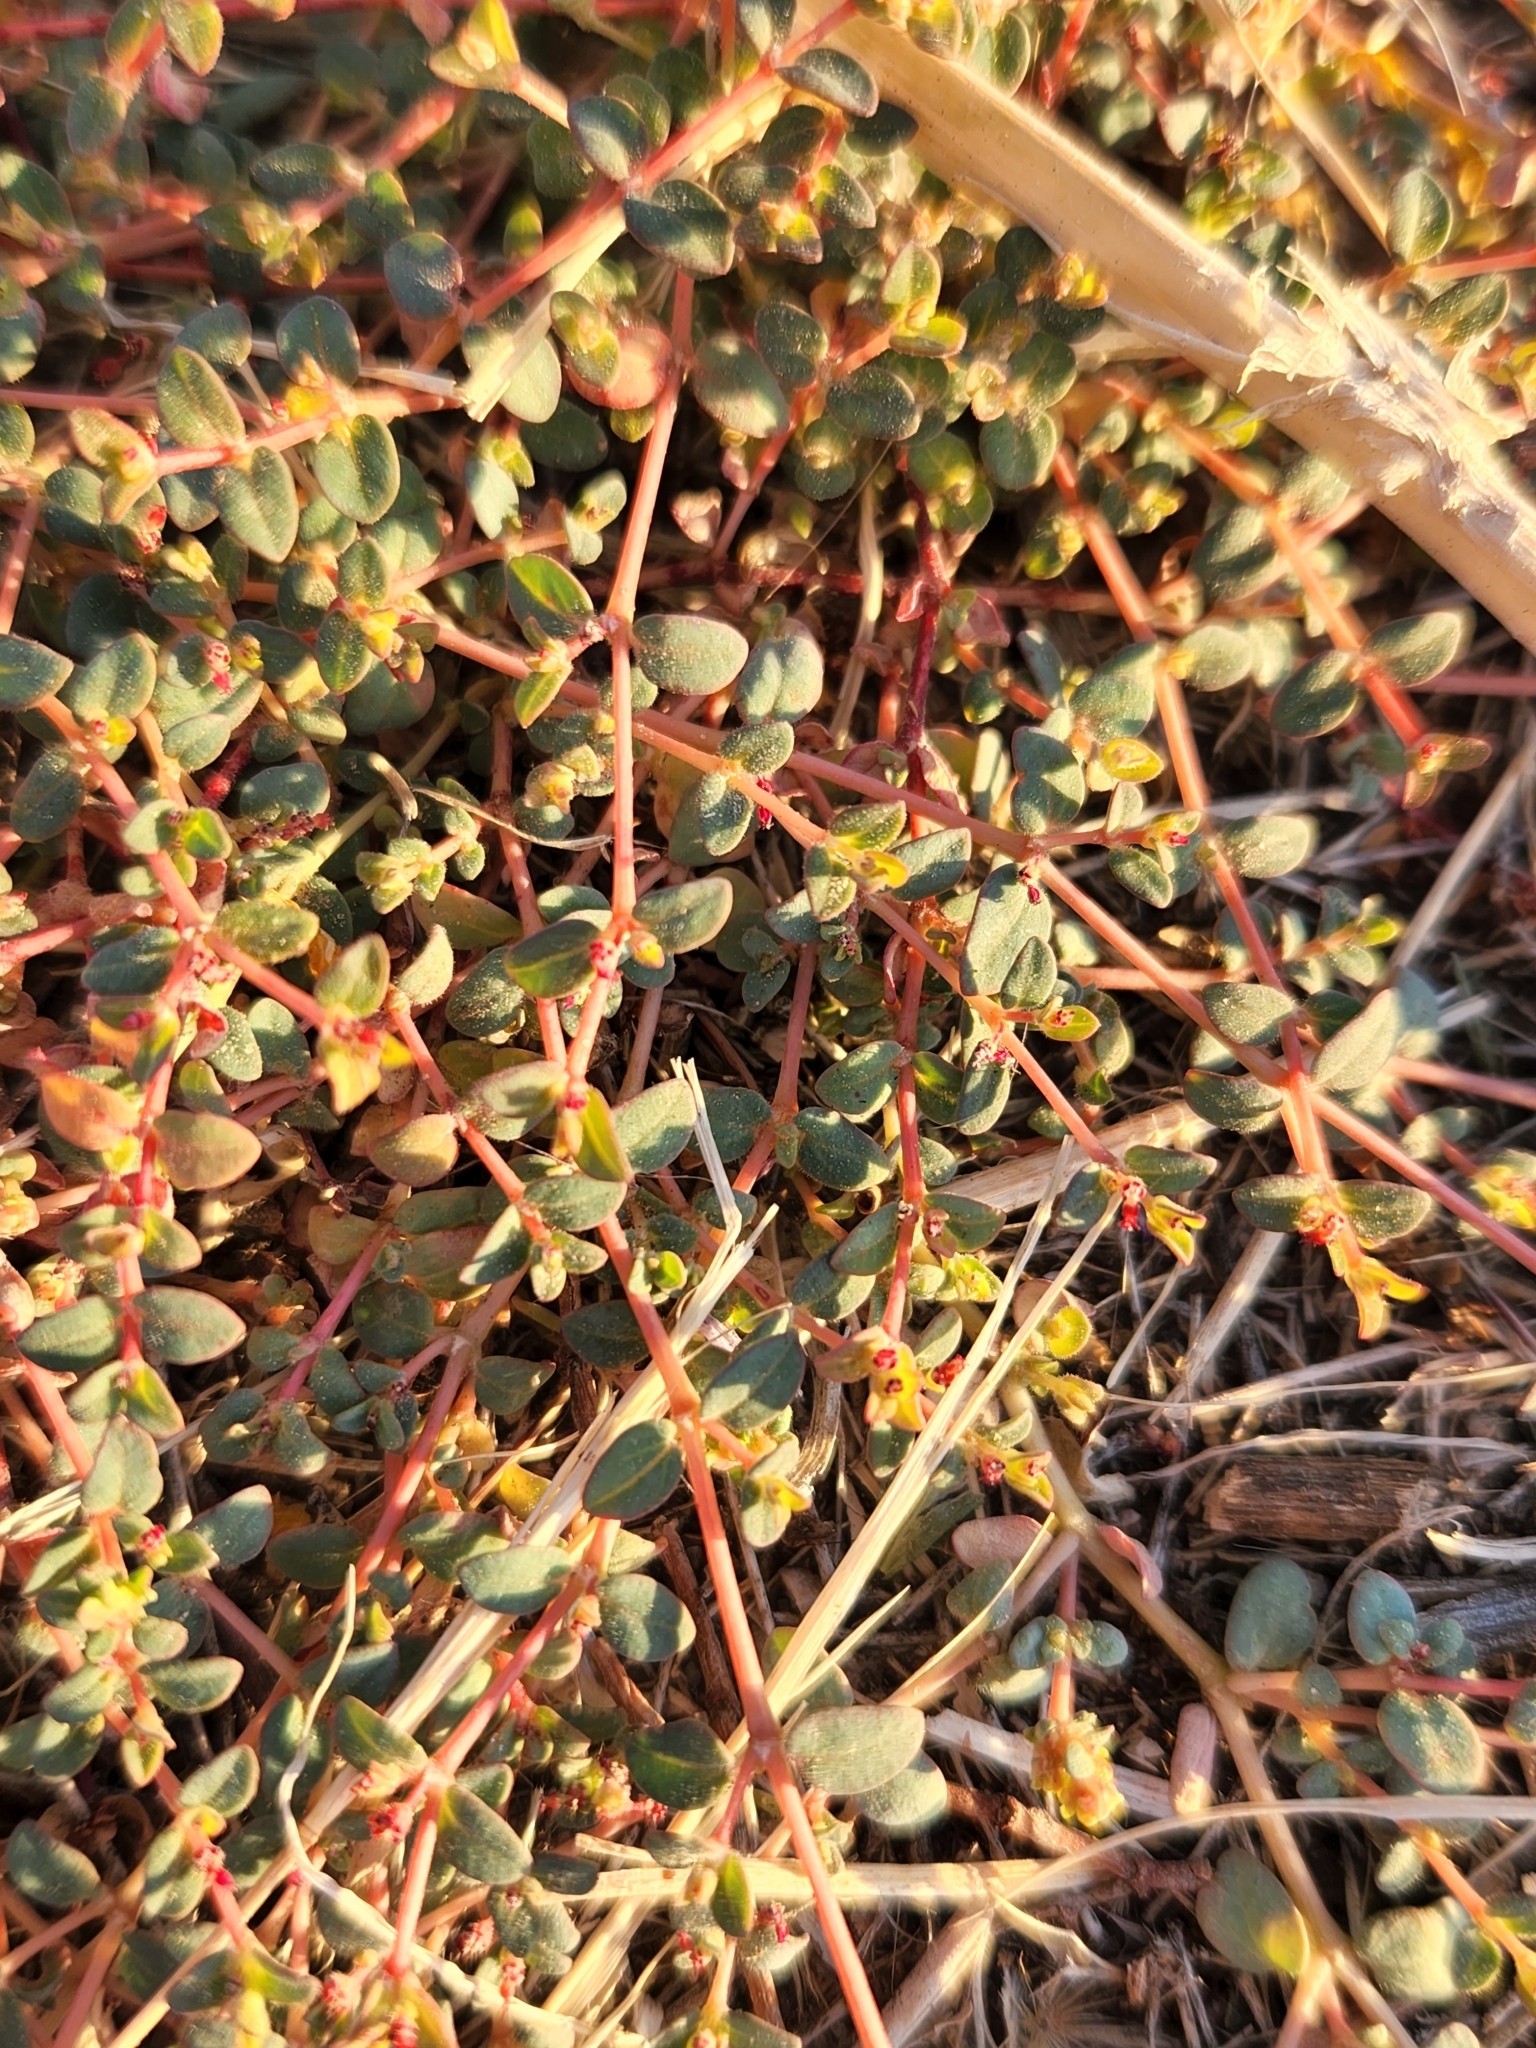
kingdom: Plantae
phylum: Tracheophyta
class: Magnoliopsida
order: Malpighiales
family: Euphorbiaceae
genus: Euphorbia
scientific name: Euphorbia micromera
